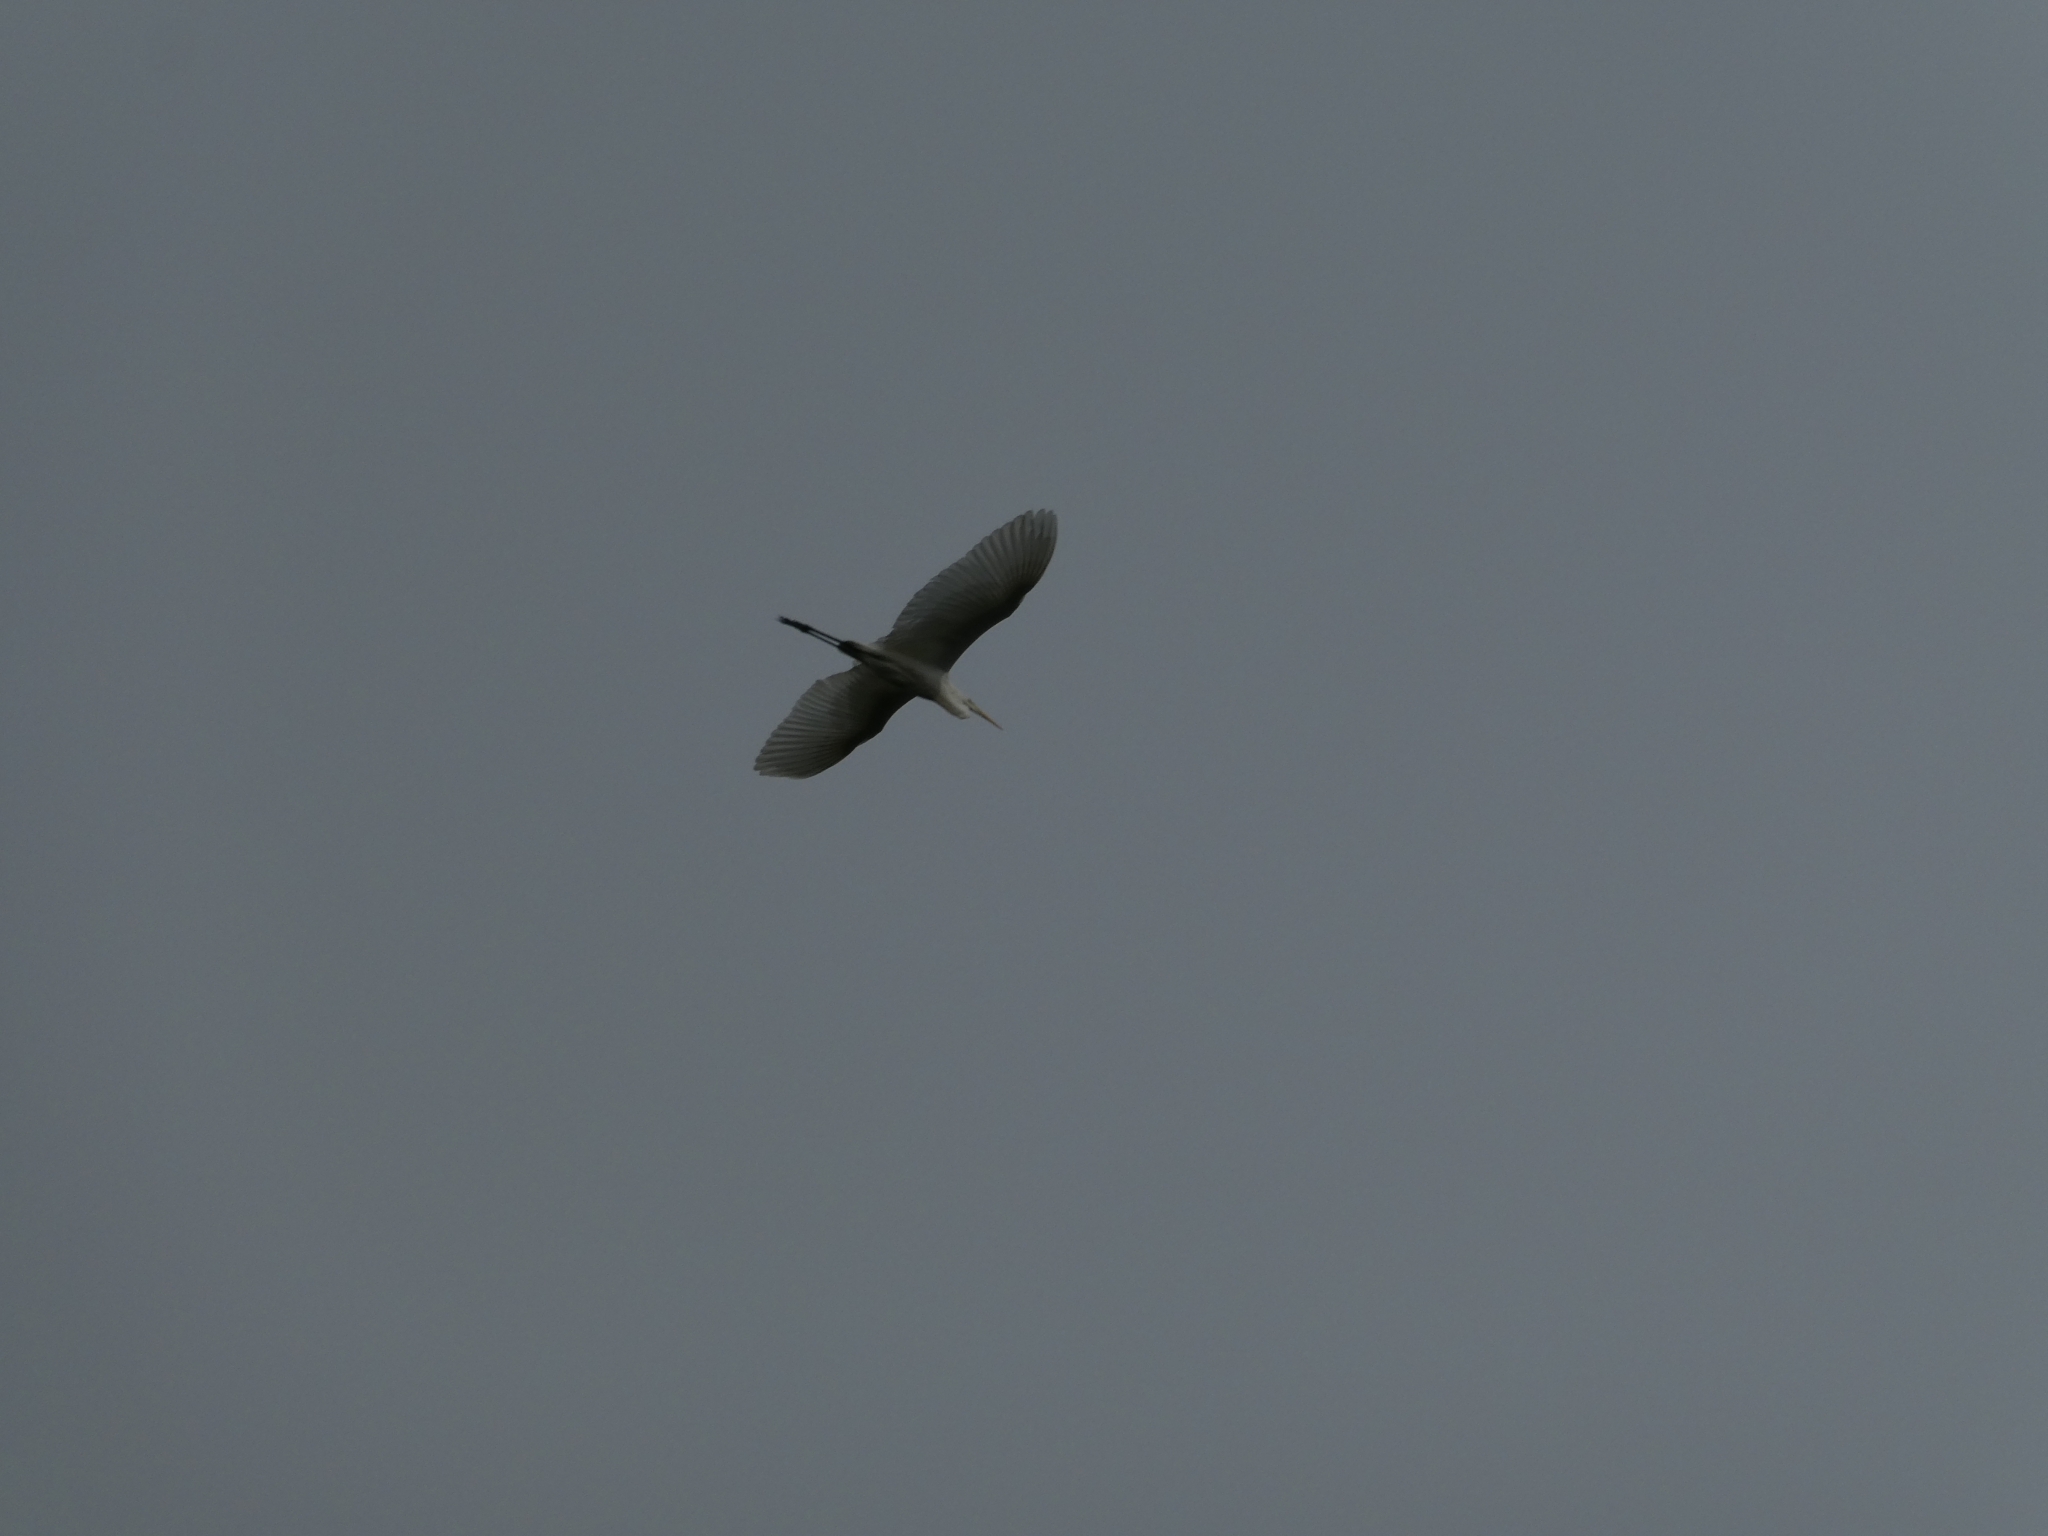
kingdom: Animalia
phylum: Chordata
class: Aves
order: Pelecaniformes
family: Ardeidae
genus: Ardea
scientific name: Ardea alba
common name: Great egret
